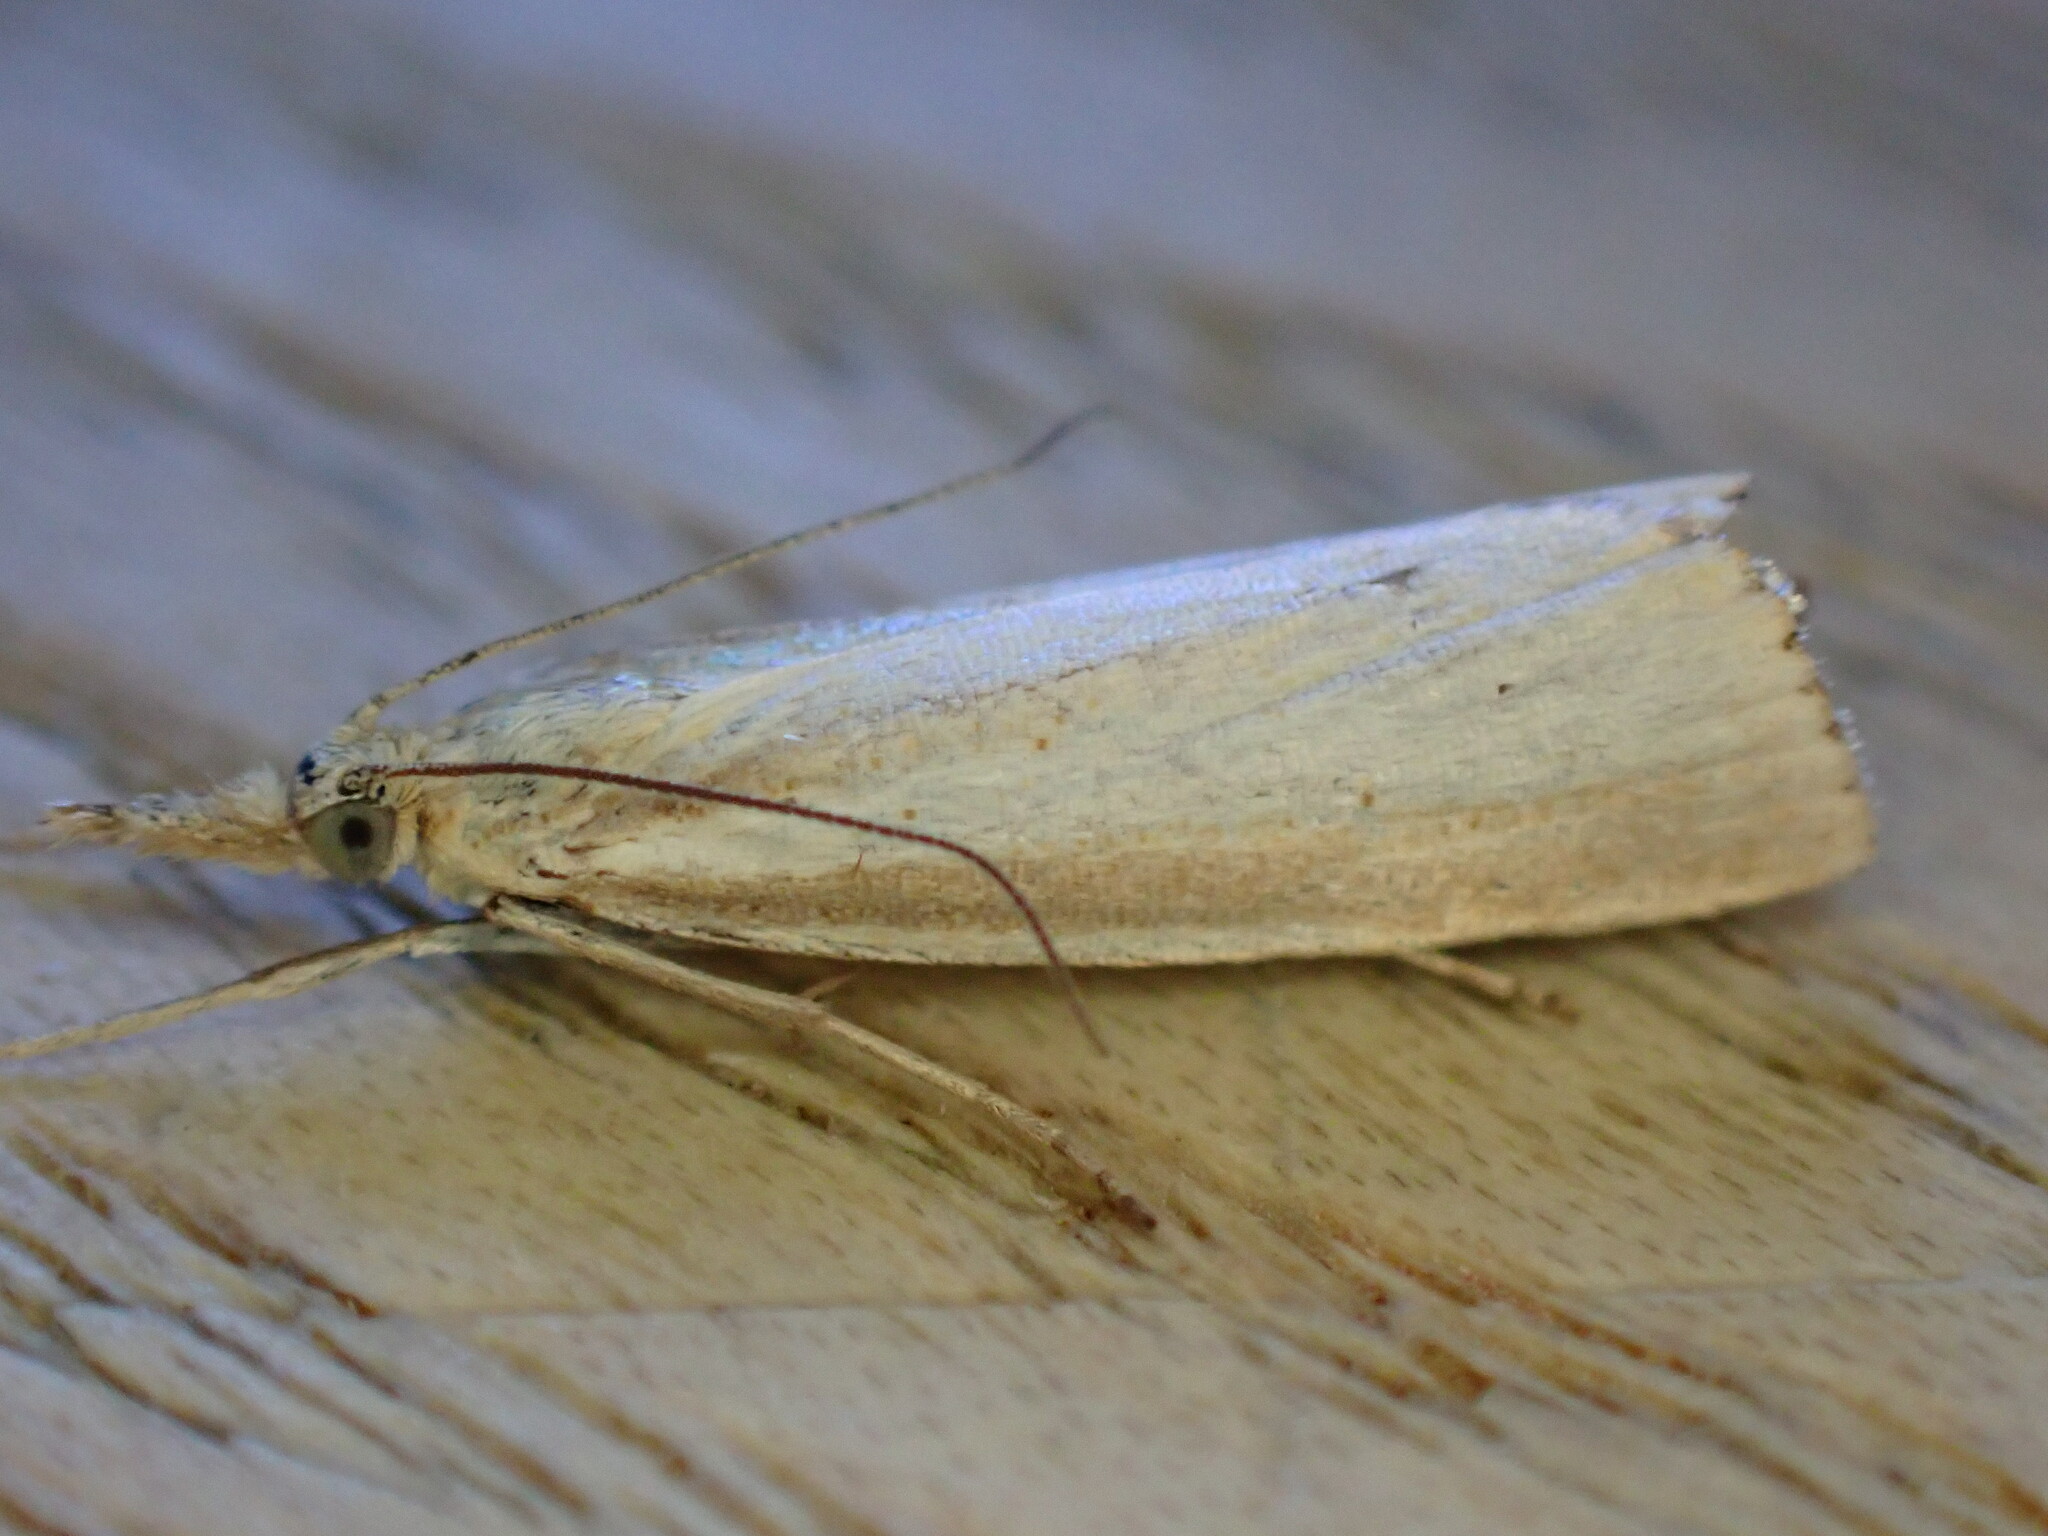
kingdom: Animalia
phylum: Arthropoda
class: Insecta
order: Lepidoptera
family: Crambidae
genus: Agriphila
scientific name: Agriphila straminella
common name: Straw grass-veneer
